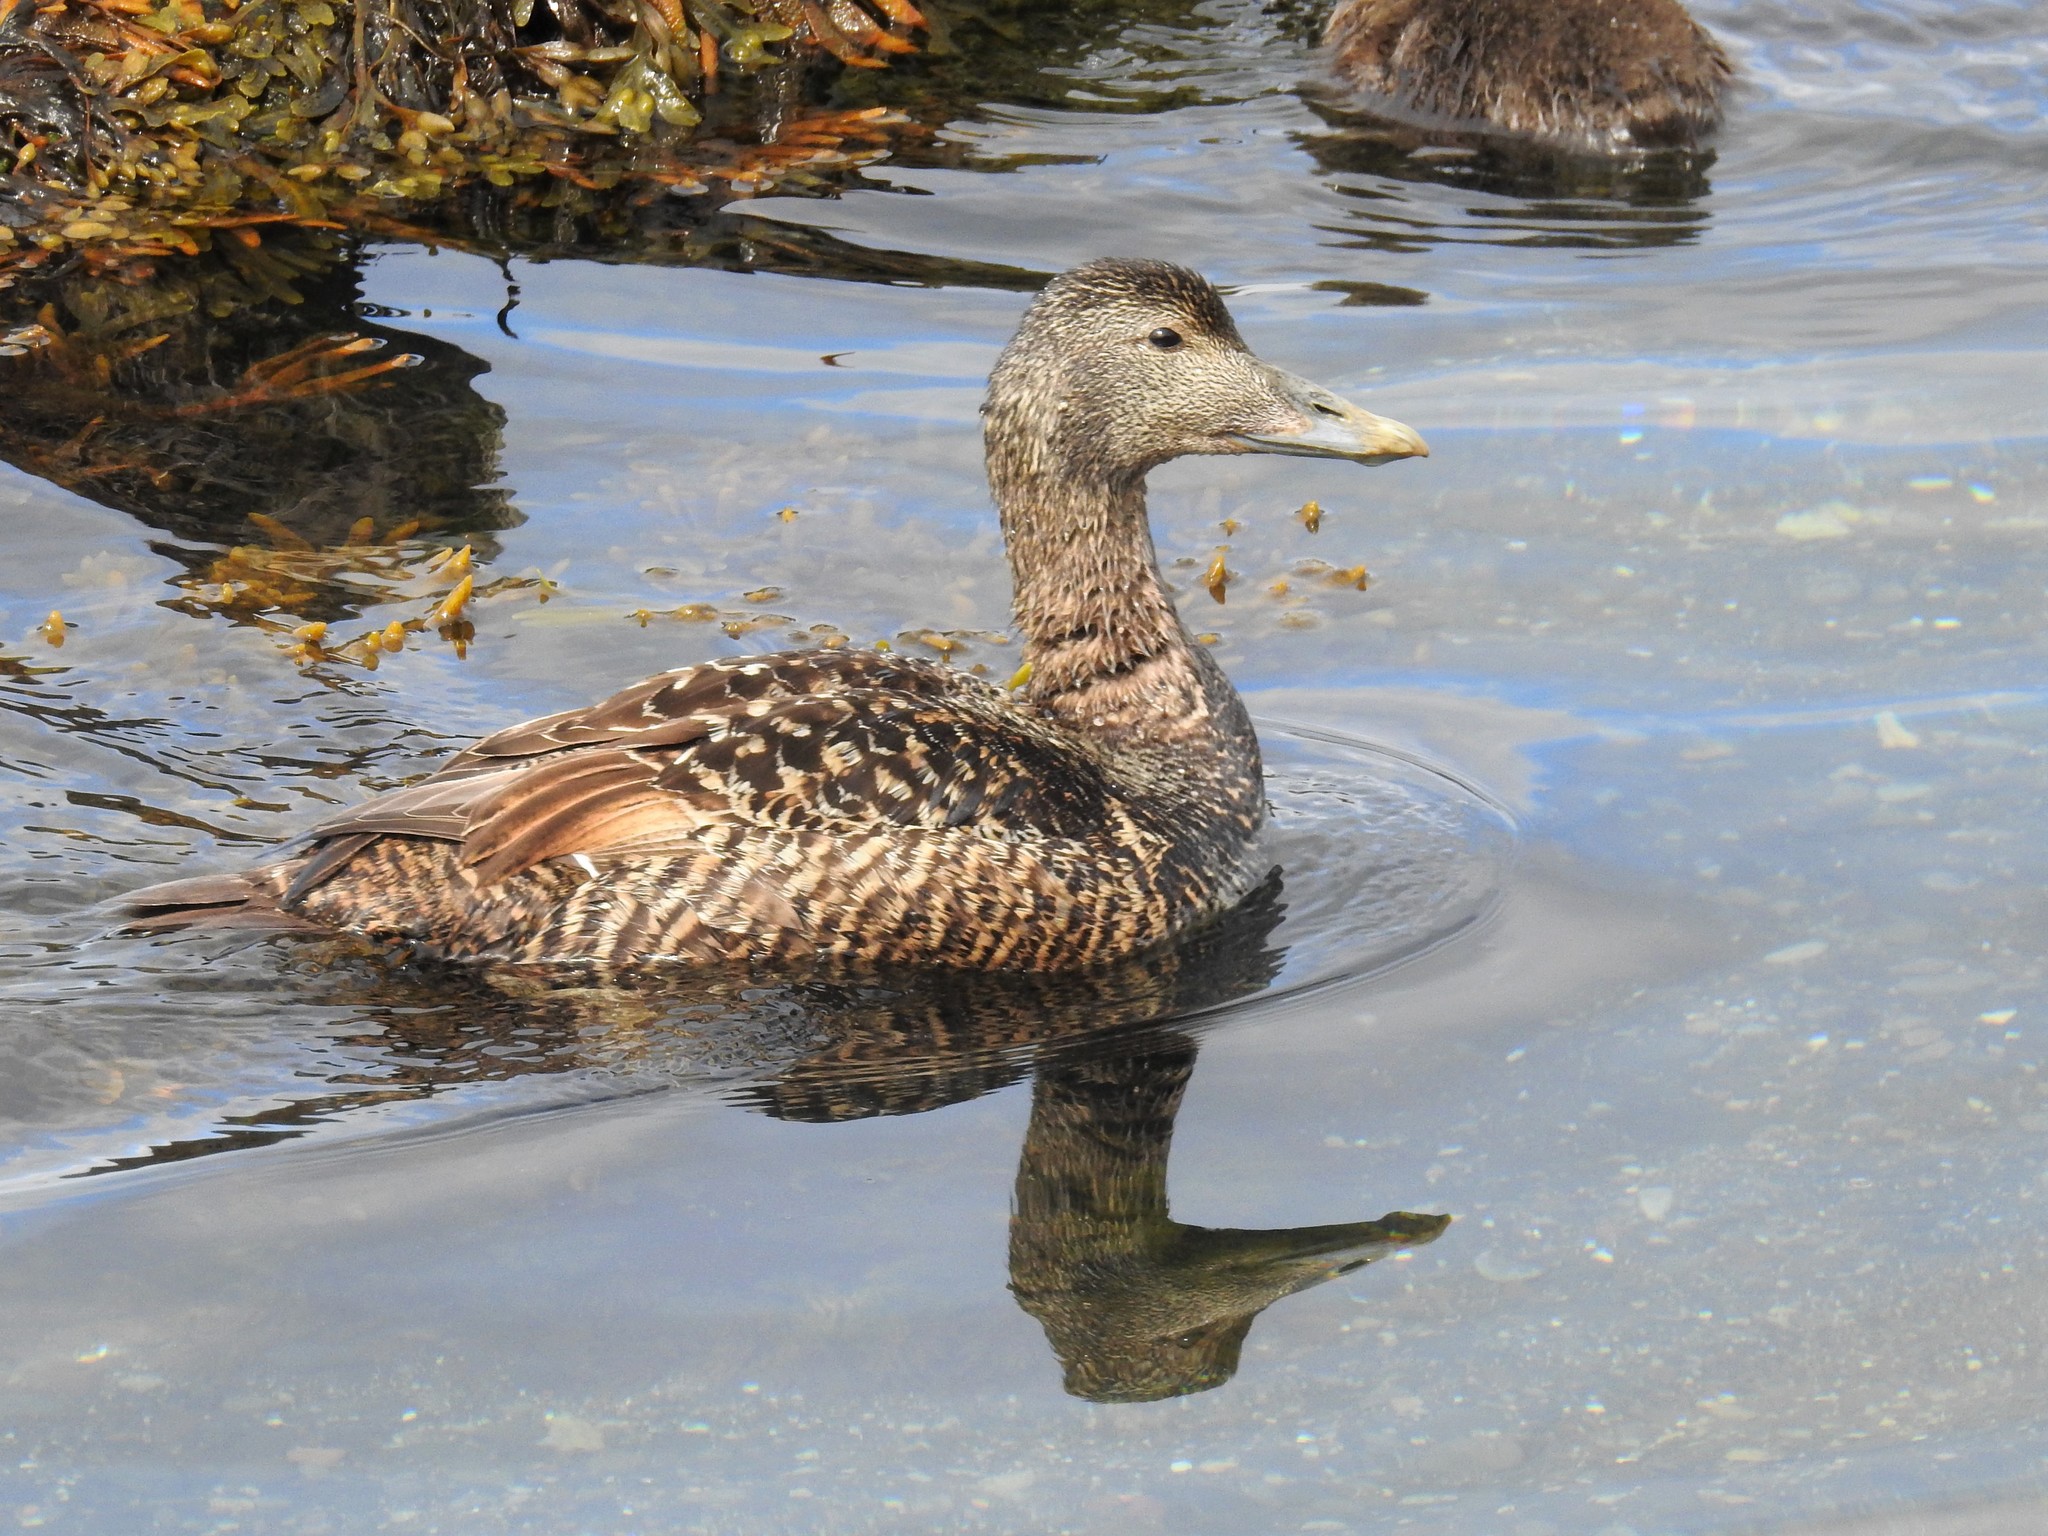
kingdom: Animalia
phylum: Chordata
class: Aves
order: Anseriformes
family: Anatidae
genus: Somateria
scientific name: Somateria mollissima
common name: Common eider
